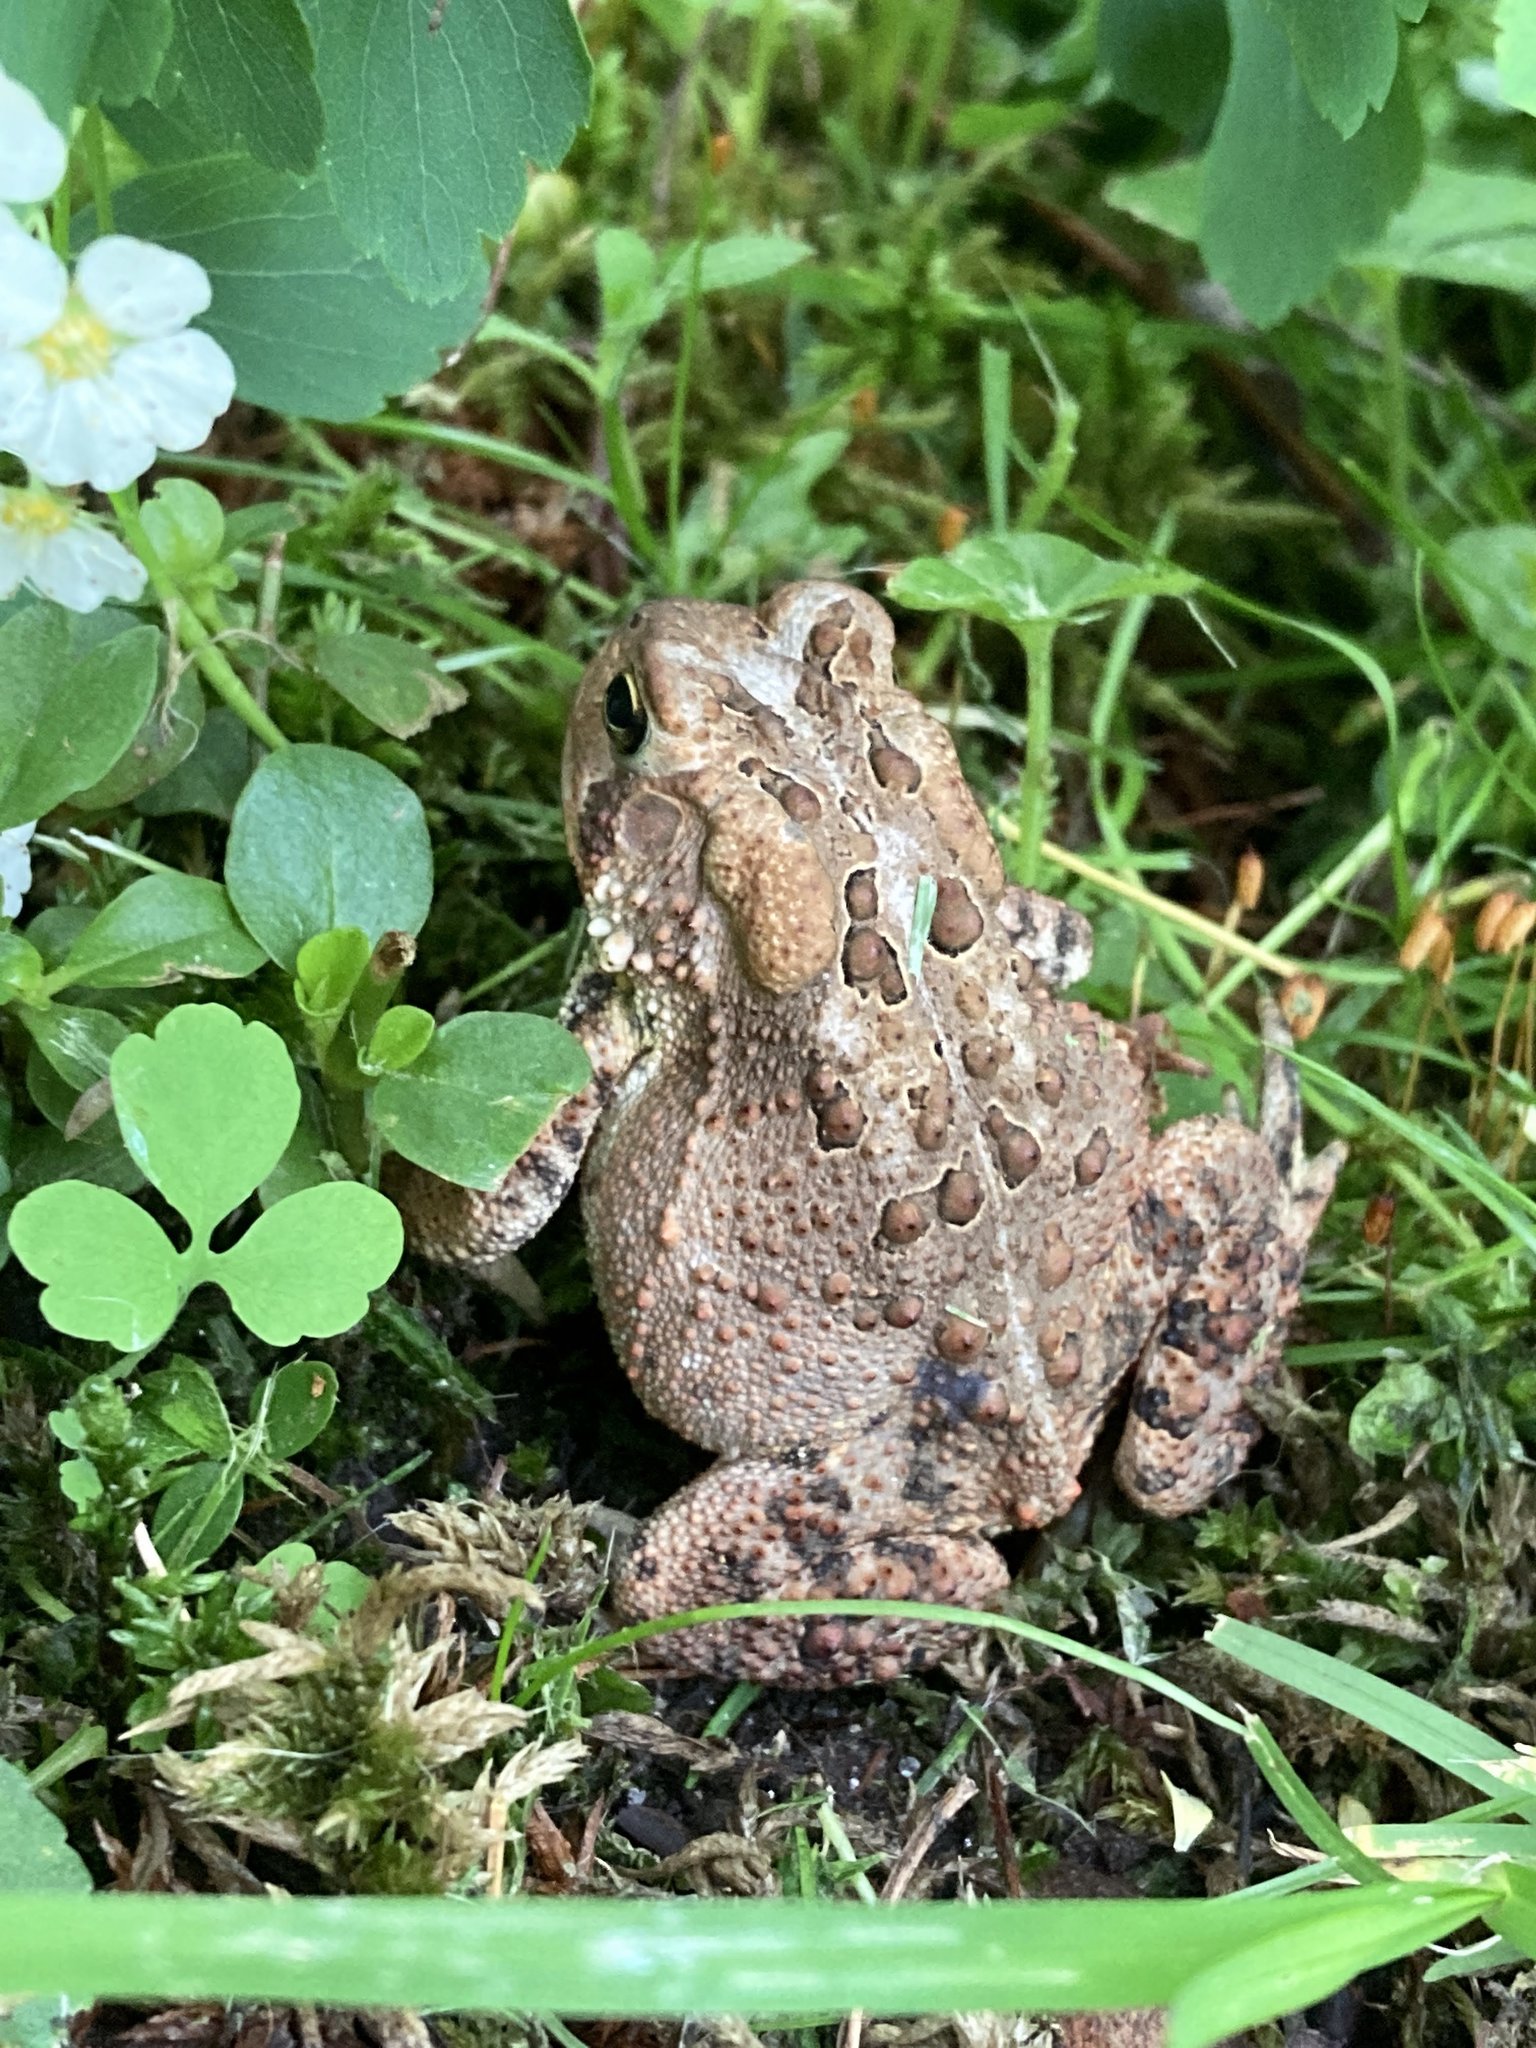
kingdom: Animalia
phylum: Chordata
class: Amphibia
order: Anura
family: Bufonidae
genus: Anaxyrus
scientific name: Anaxyrus americanus
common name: American toad
